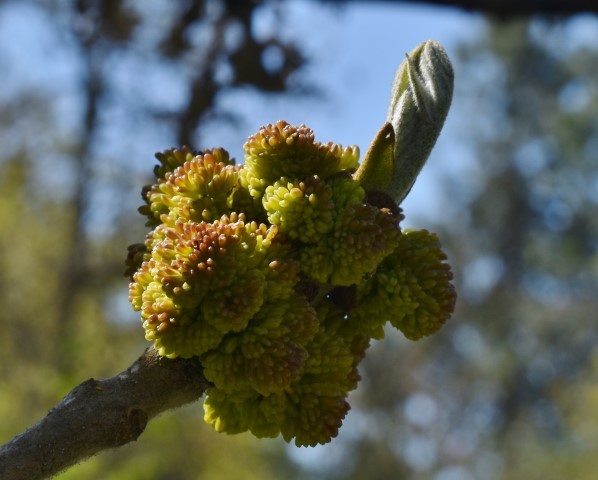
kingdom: Plantae
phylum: Tracheophyta
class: Magnoliopsida
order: Lamiales
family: Oleaceae
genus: Fraxinus
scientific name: Fraxinus latifolia
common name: Oregon ash
